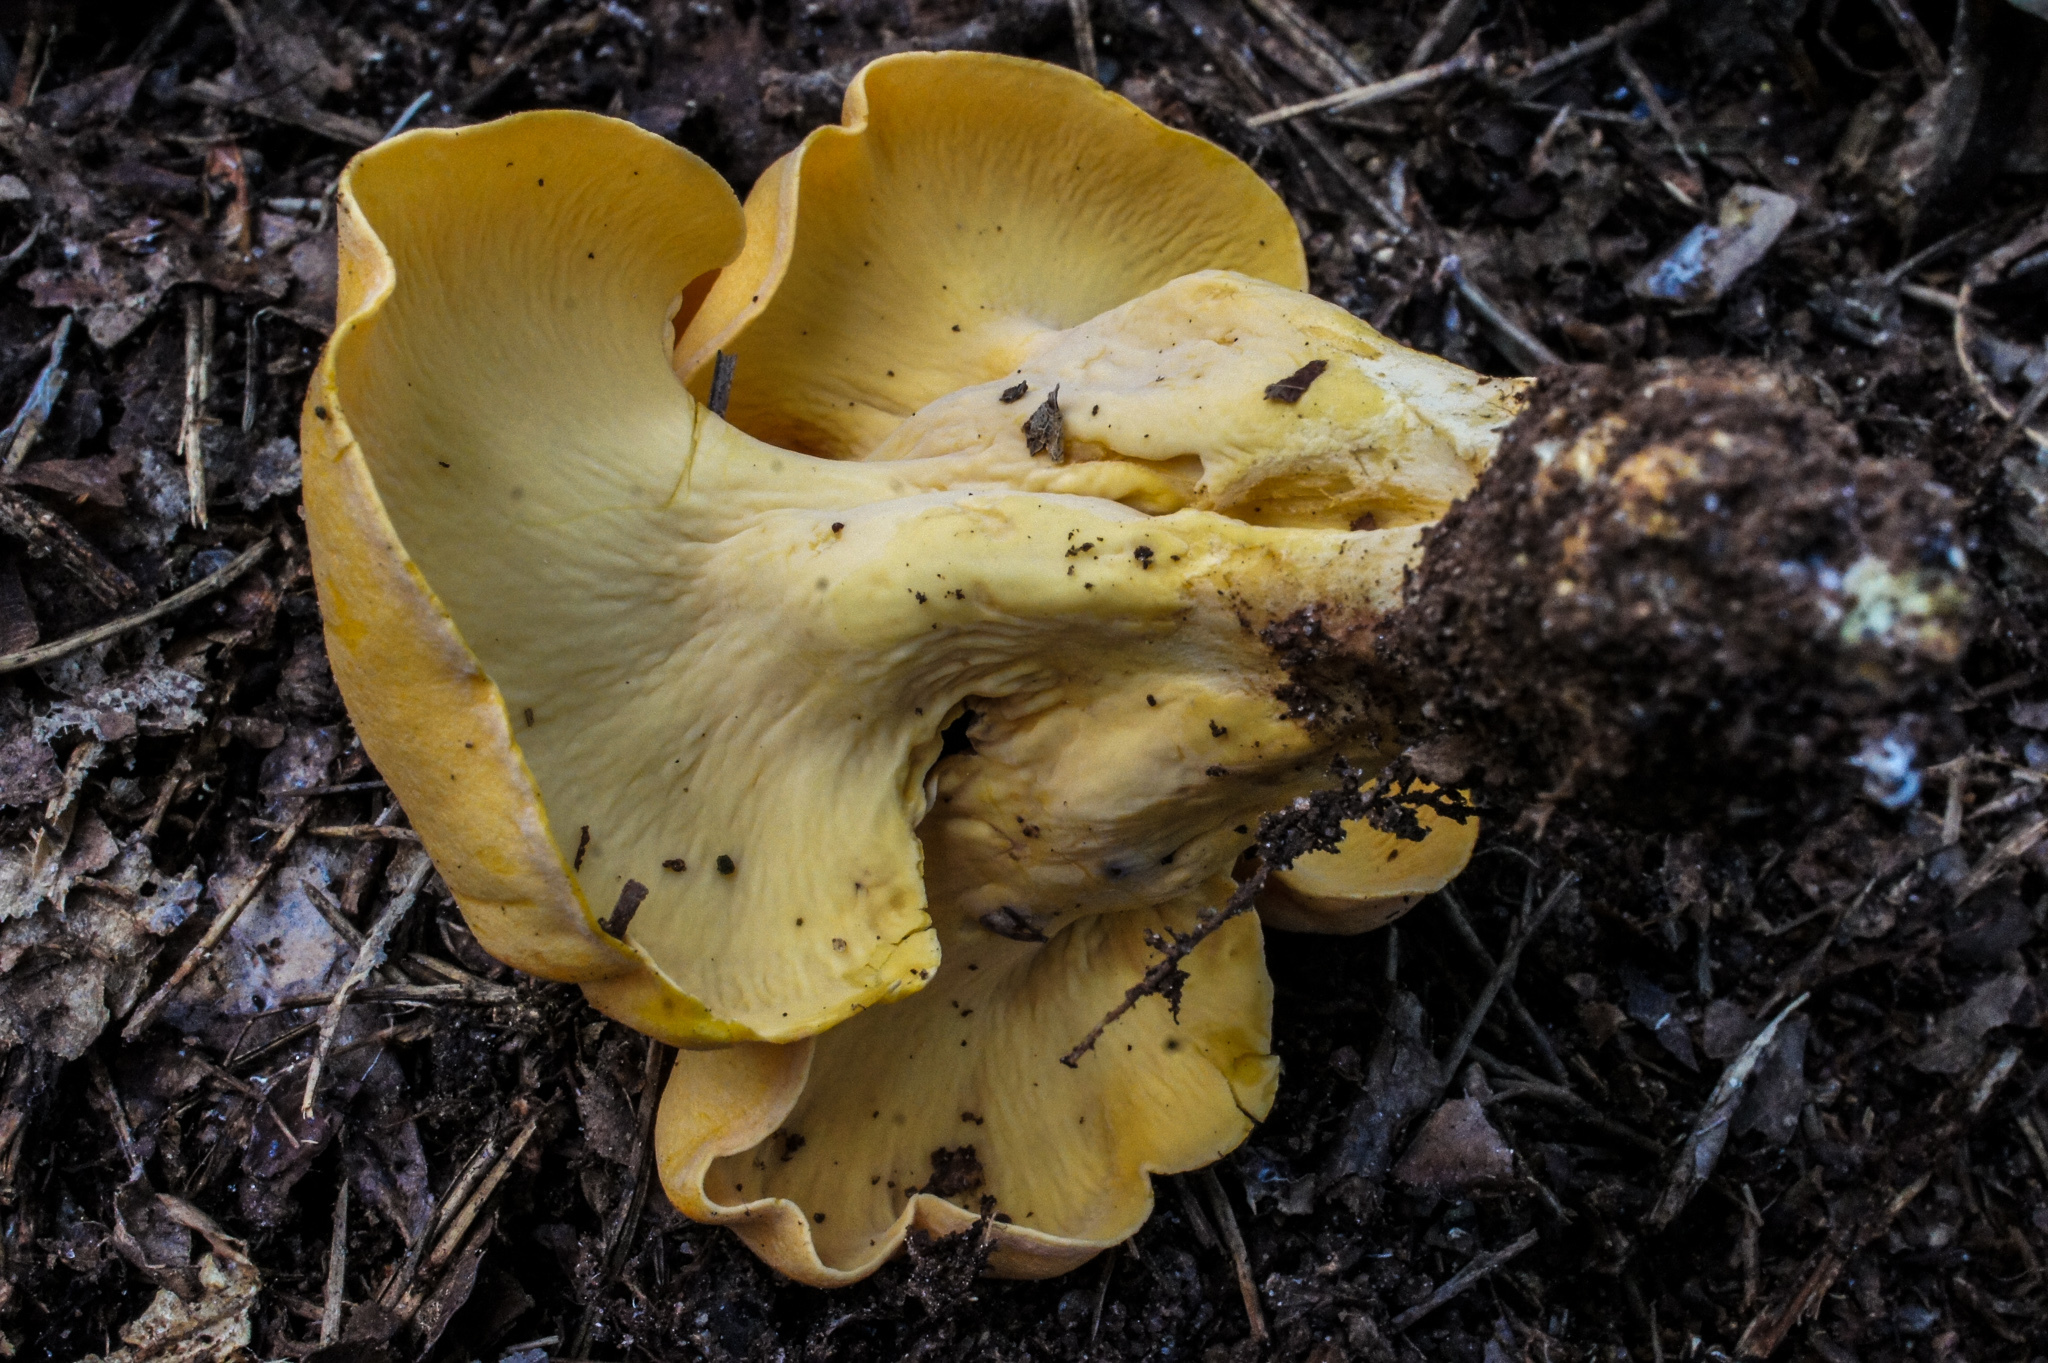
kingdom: Fungi
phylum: Basidiomycota
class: Agaricomycetes
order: Cantharellales
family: Hydnaceae
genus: Cantharellus
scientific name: Cantharellus lateritius
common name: Smooth chanterelle
